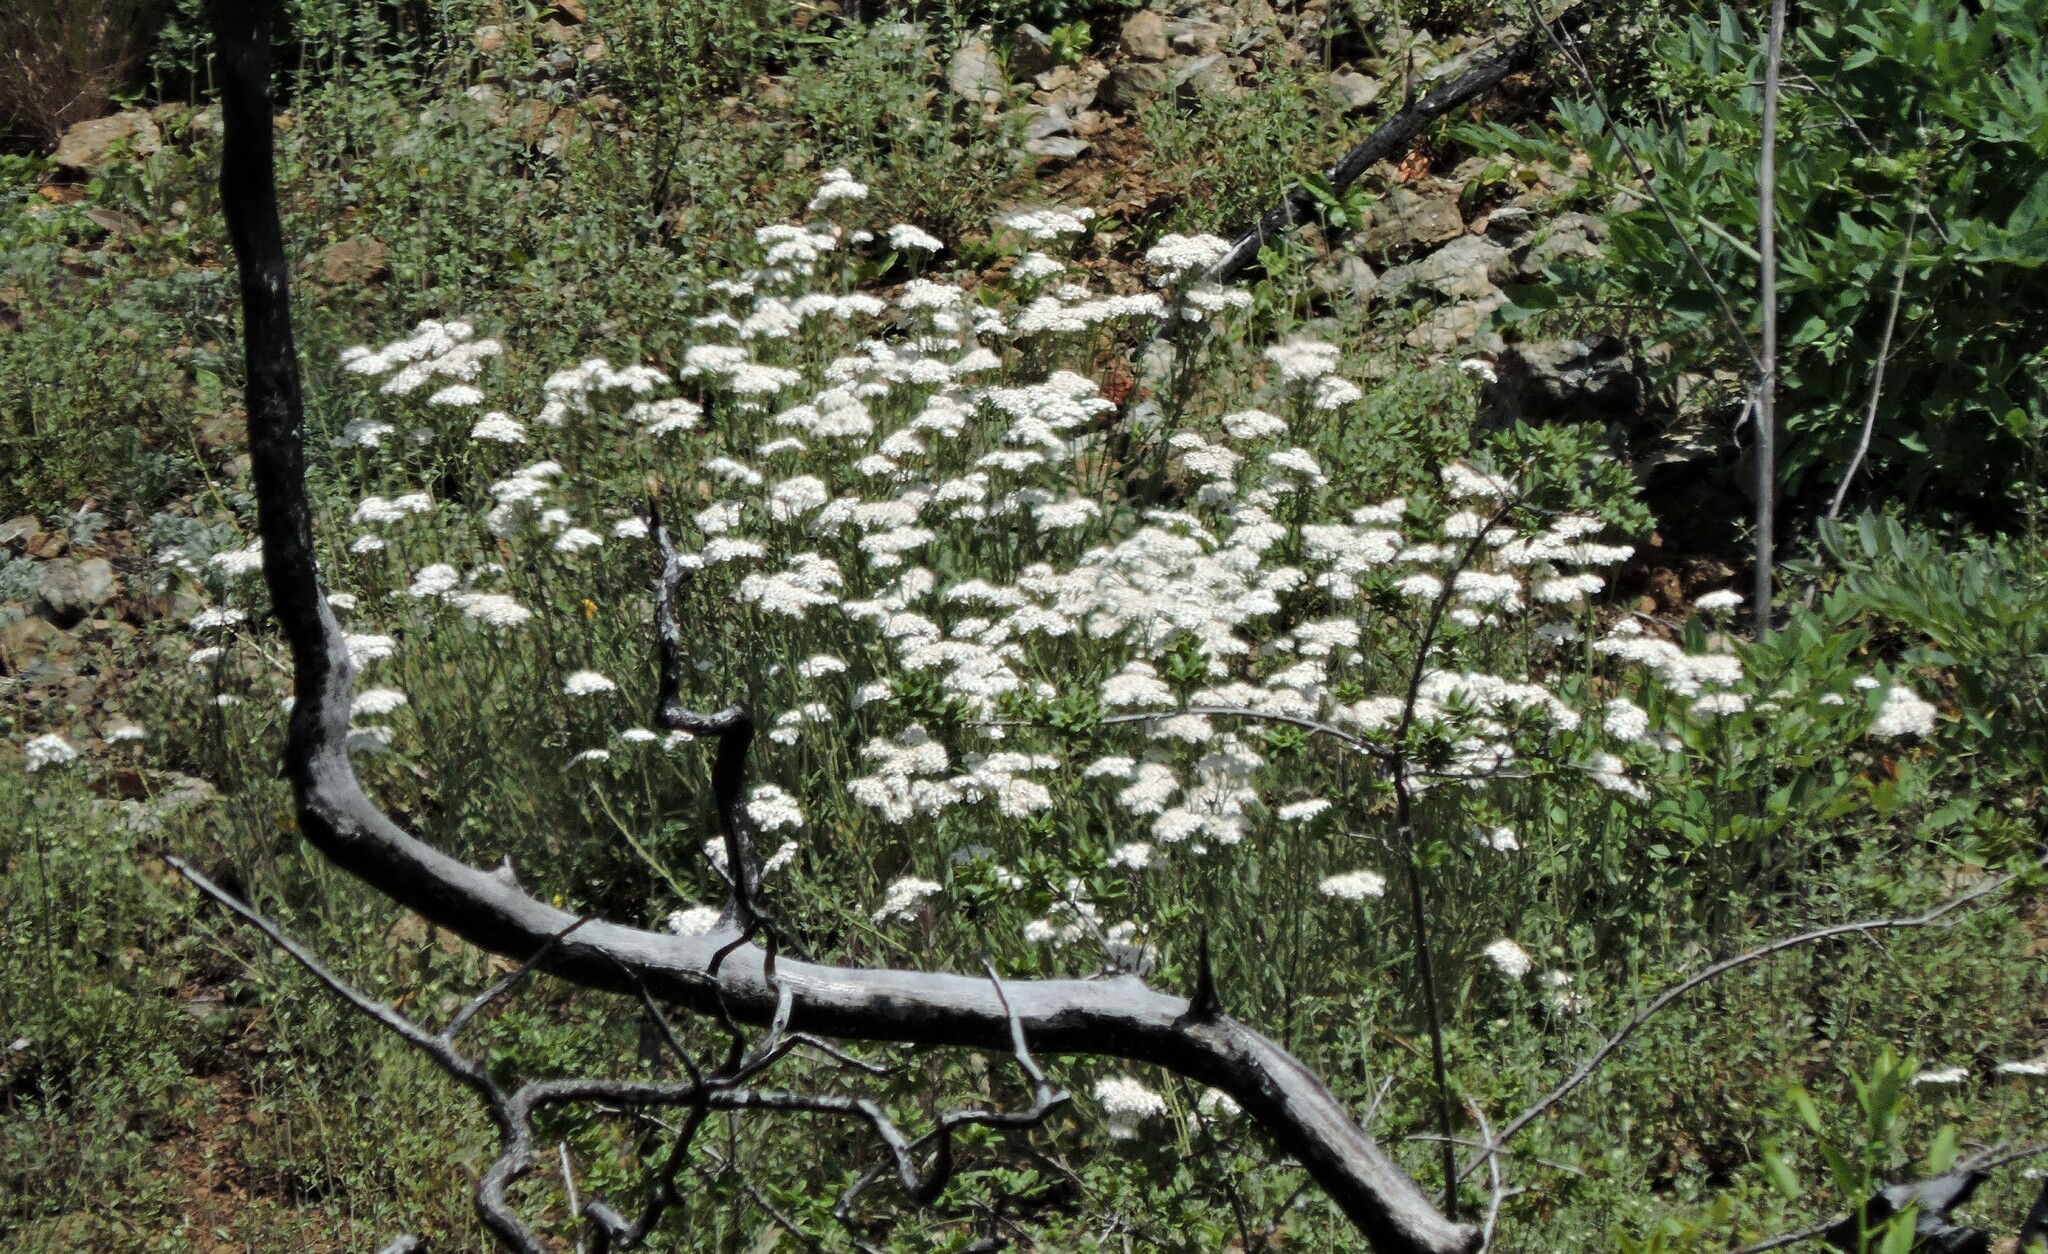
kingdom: Plantae
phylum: Tracheophyta
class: Magnoliopsida
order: Asterales
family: Asteraceae
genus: Achillea
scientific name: Achillea millefolium
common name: Yarrow
